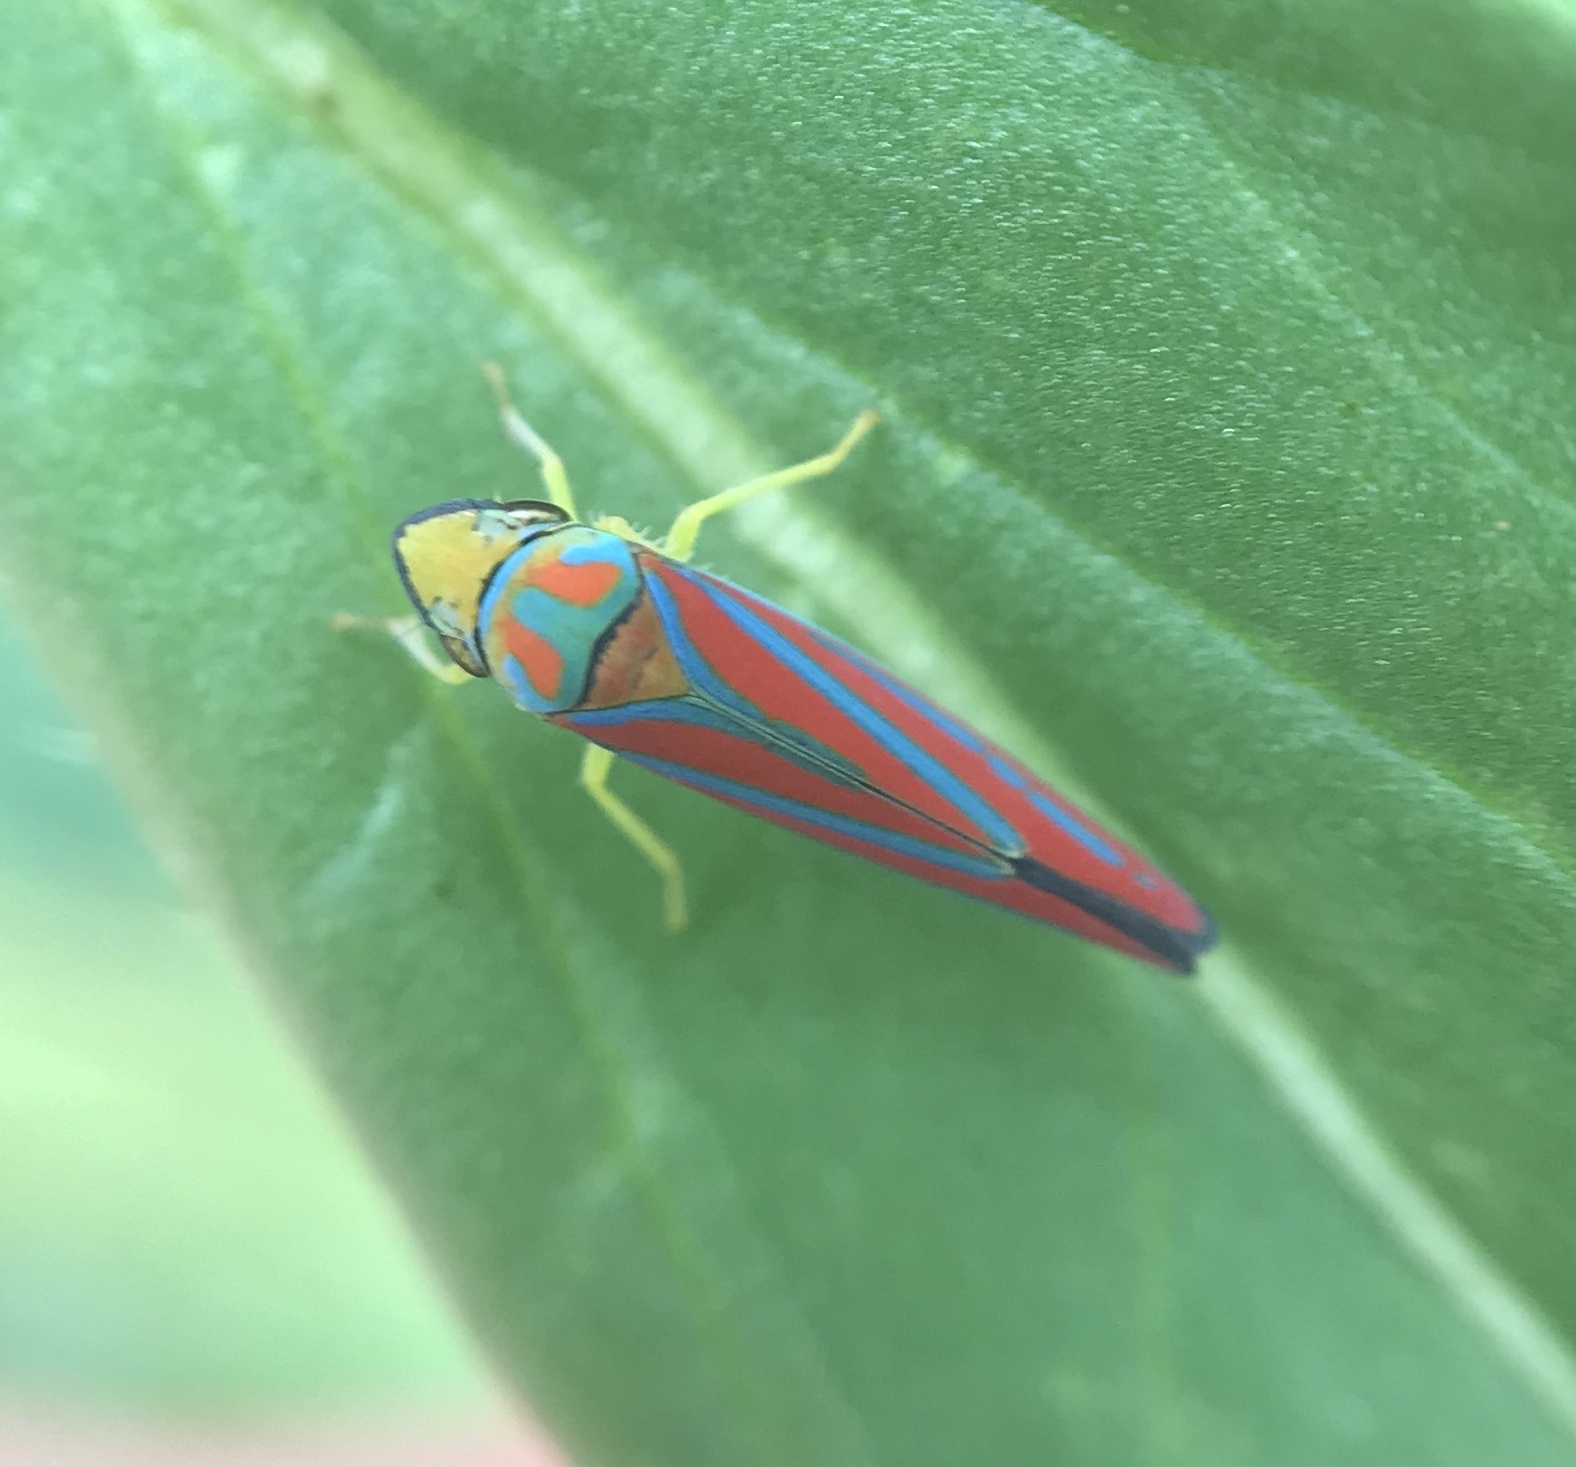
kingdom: Animalia
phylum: Arthropoda
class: Insecta
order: Hemiptera
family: Cicadellidae
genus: Graphocephala
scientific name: Graphocephala coccinea
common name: Candy-striped leafhopper
